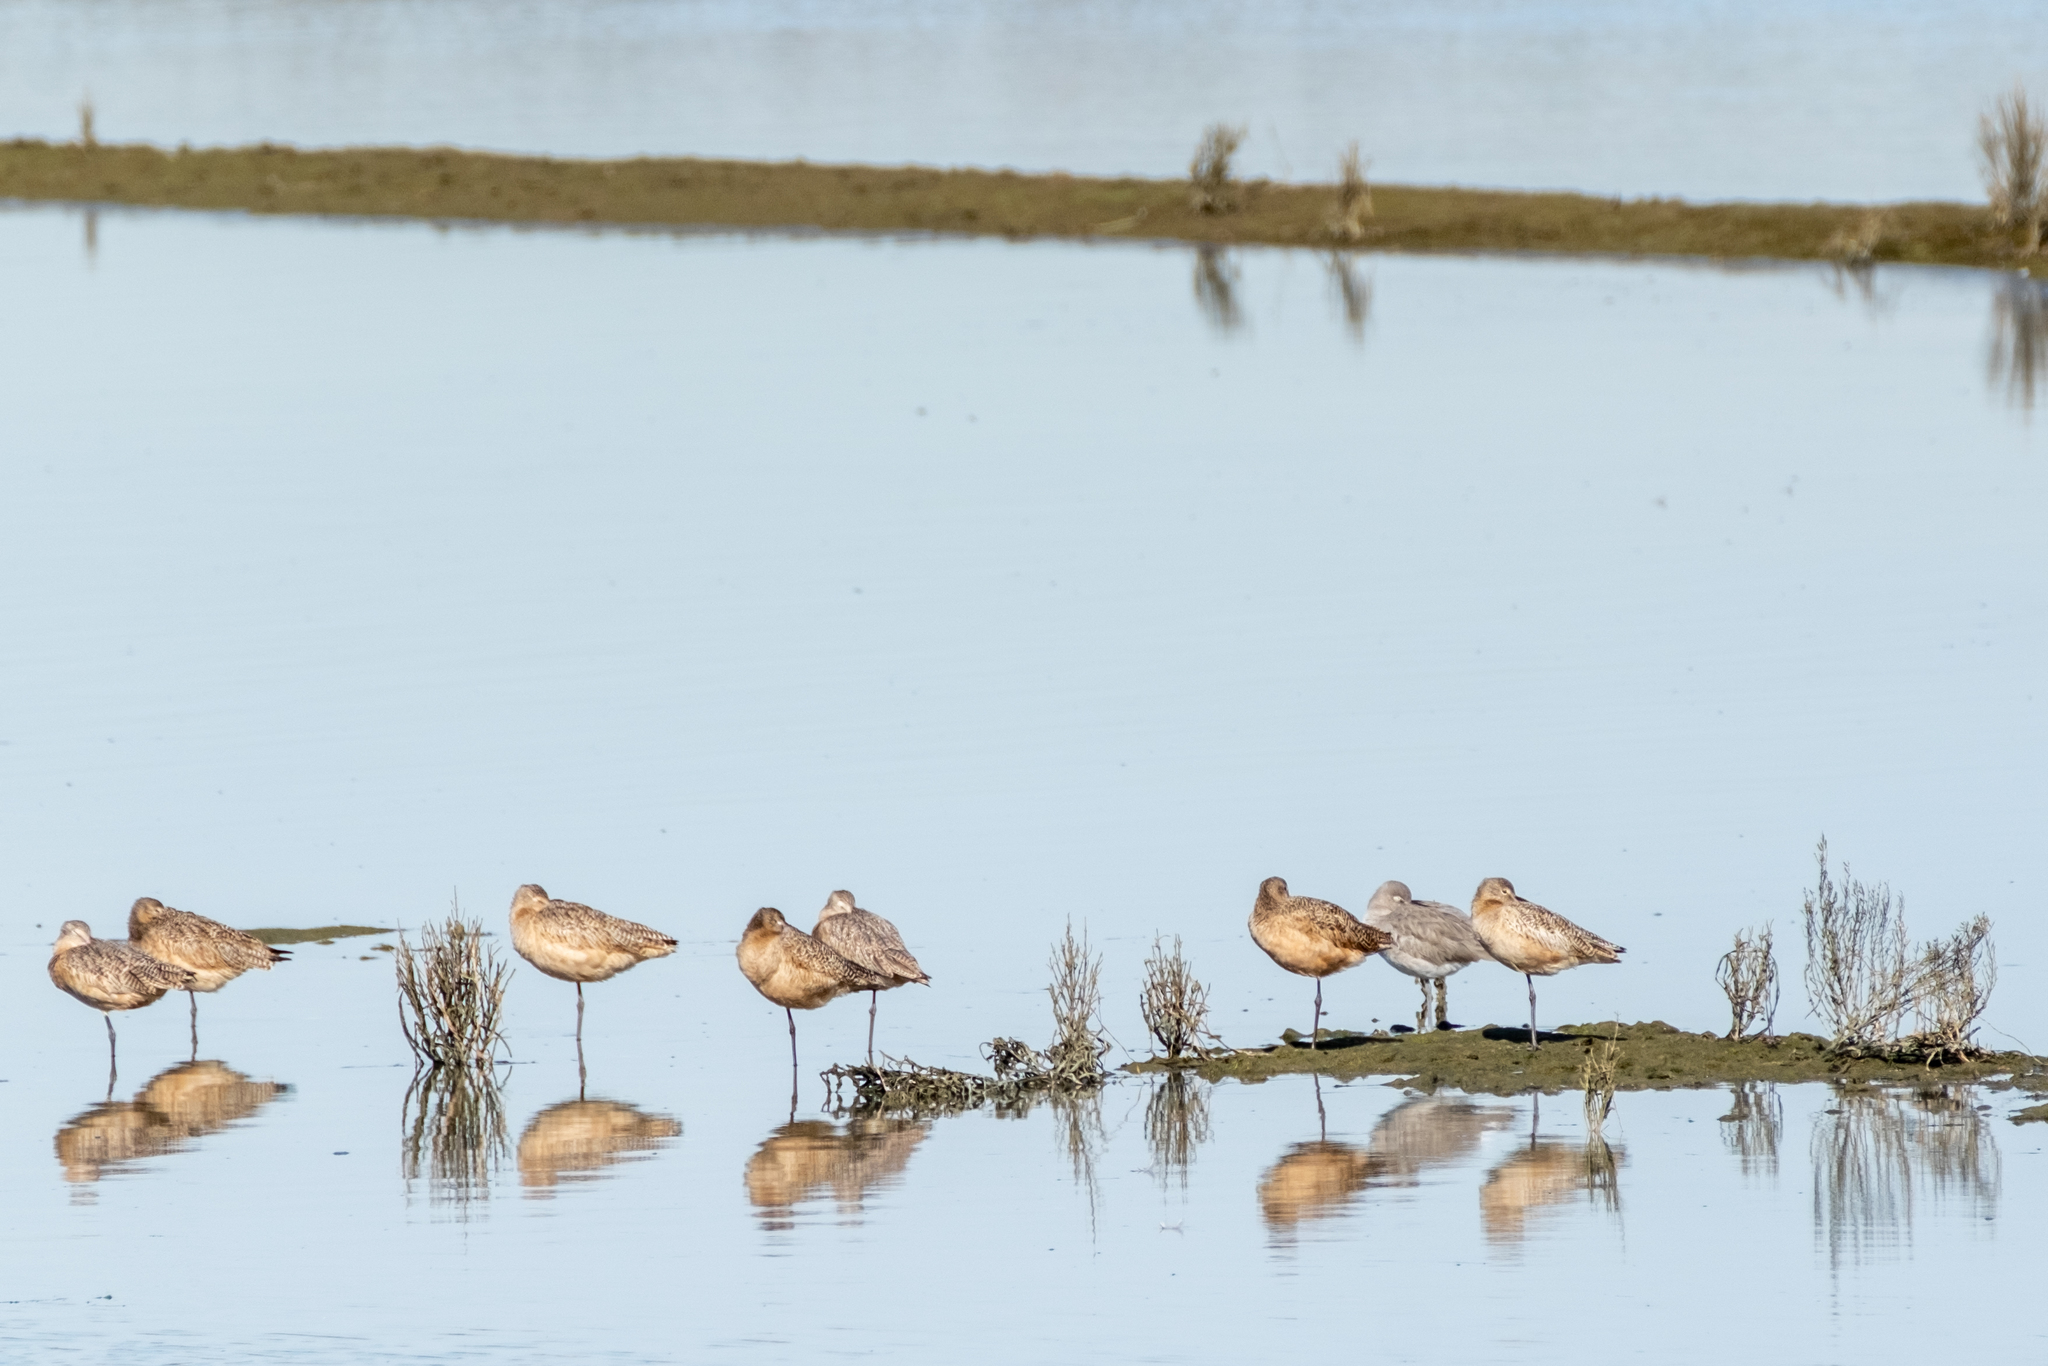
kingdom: Animalia
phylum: Chordata
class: Aves
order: Charadriiformes
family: Scolopacidae
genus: Limosa
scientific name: Limosa fedoa
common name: Marbled godwit
